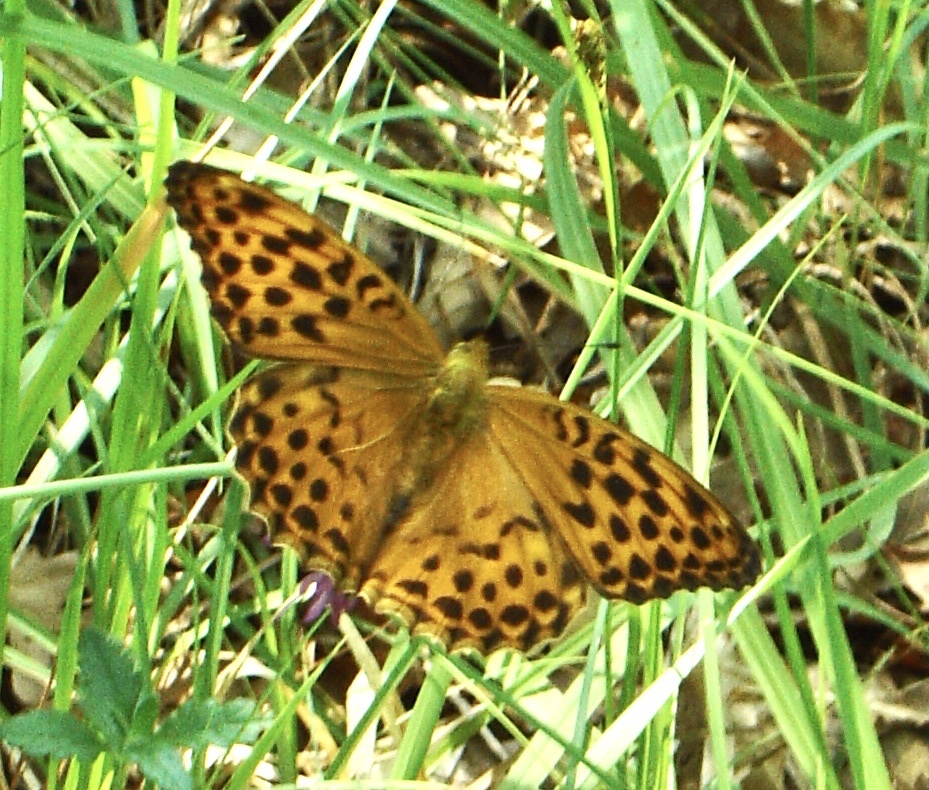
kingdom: Animalia
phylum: Arthropoda
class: Insecta
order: Lepidoptera
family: Nymphalidae
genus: Argynnis
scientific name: Argynnis paphia
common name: Silver-washed fritillary
